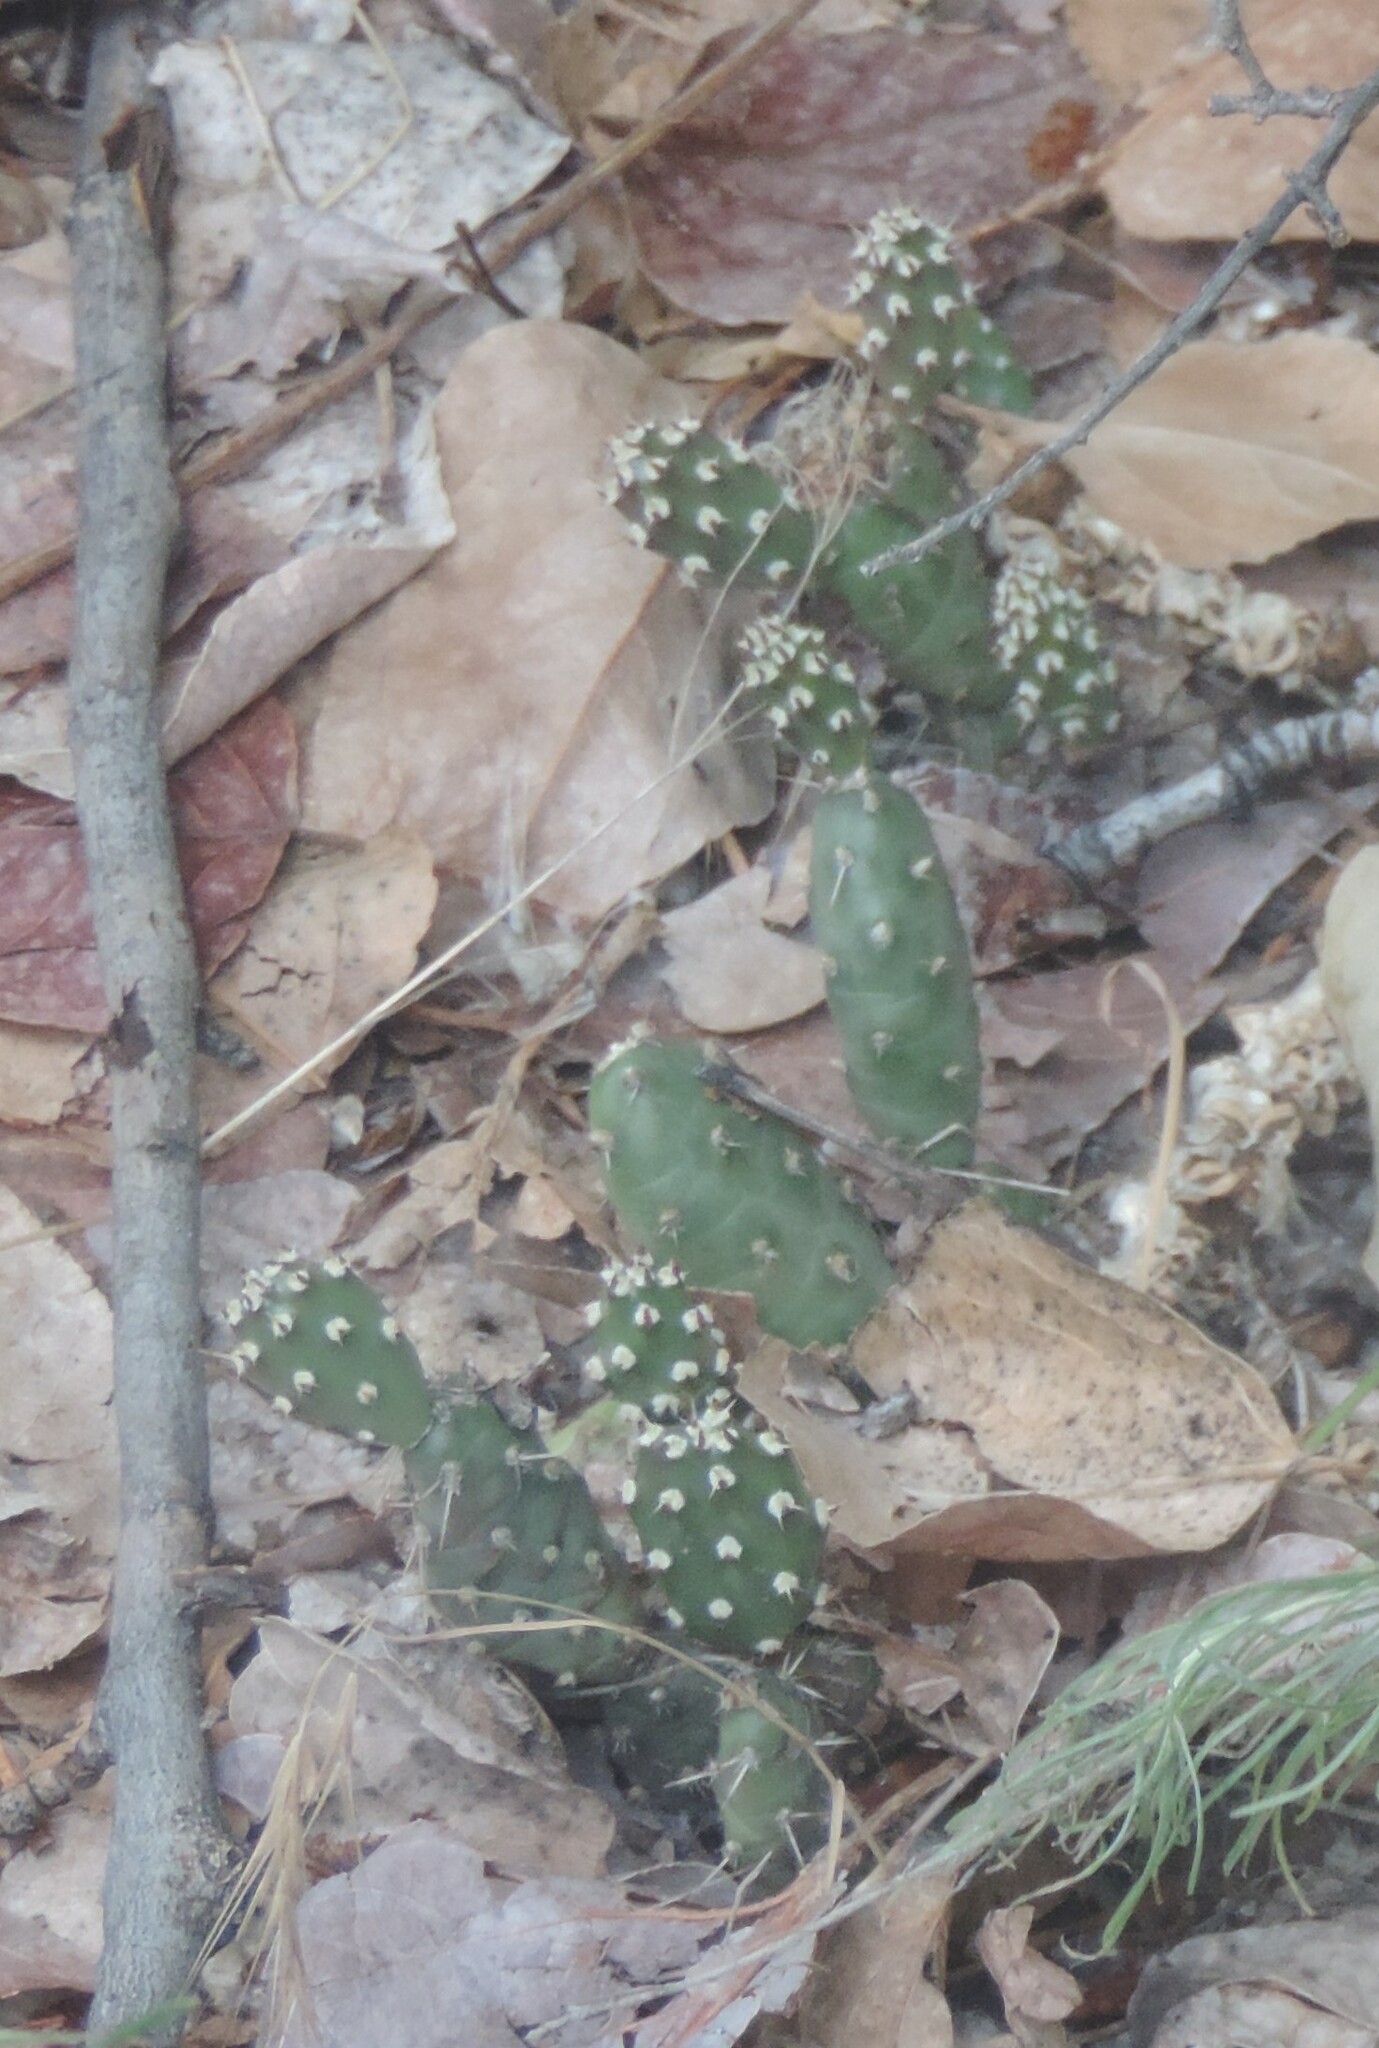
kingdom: Plantae
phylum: Tracheophyta
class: Magnoliopsida
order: Caryophyllales
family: Cactaceae
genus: Opuntia
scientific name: Opuntia fragilis
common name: Brittle cactus
